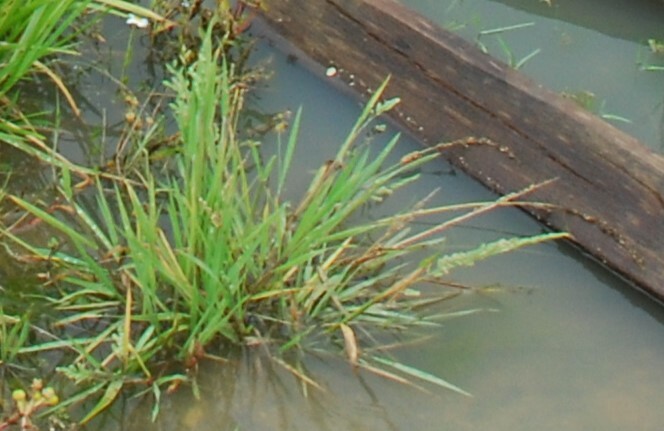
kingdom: Plantae
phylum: Tracheophyta
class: Liliopsida
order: Poales
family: Poaceae
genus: Beckmannia
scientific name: Beckmannia syzigachne
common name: American slough-grass
